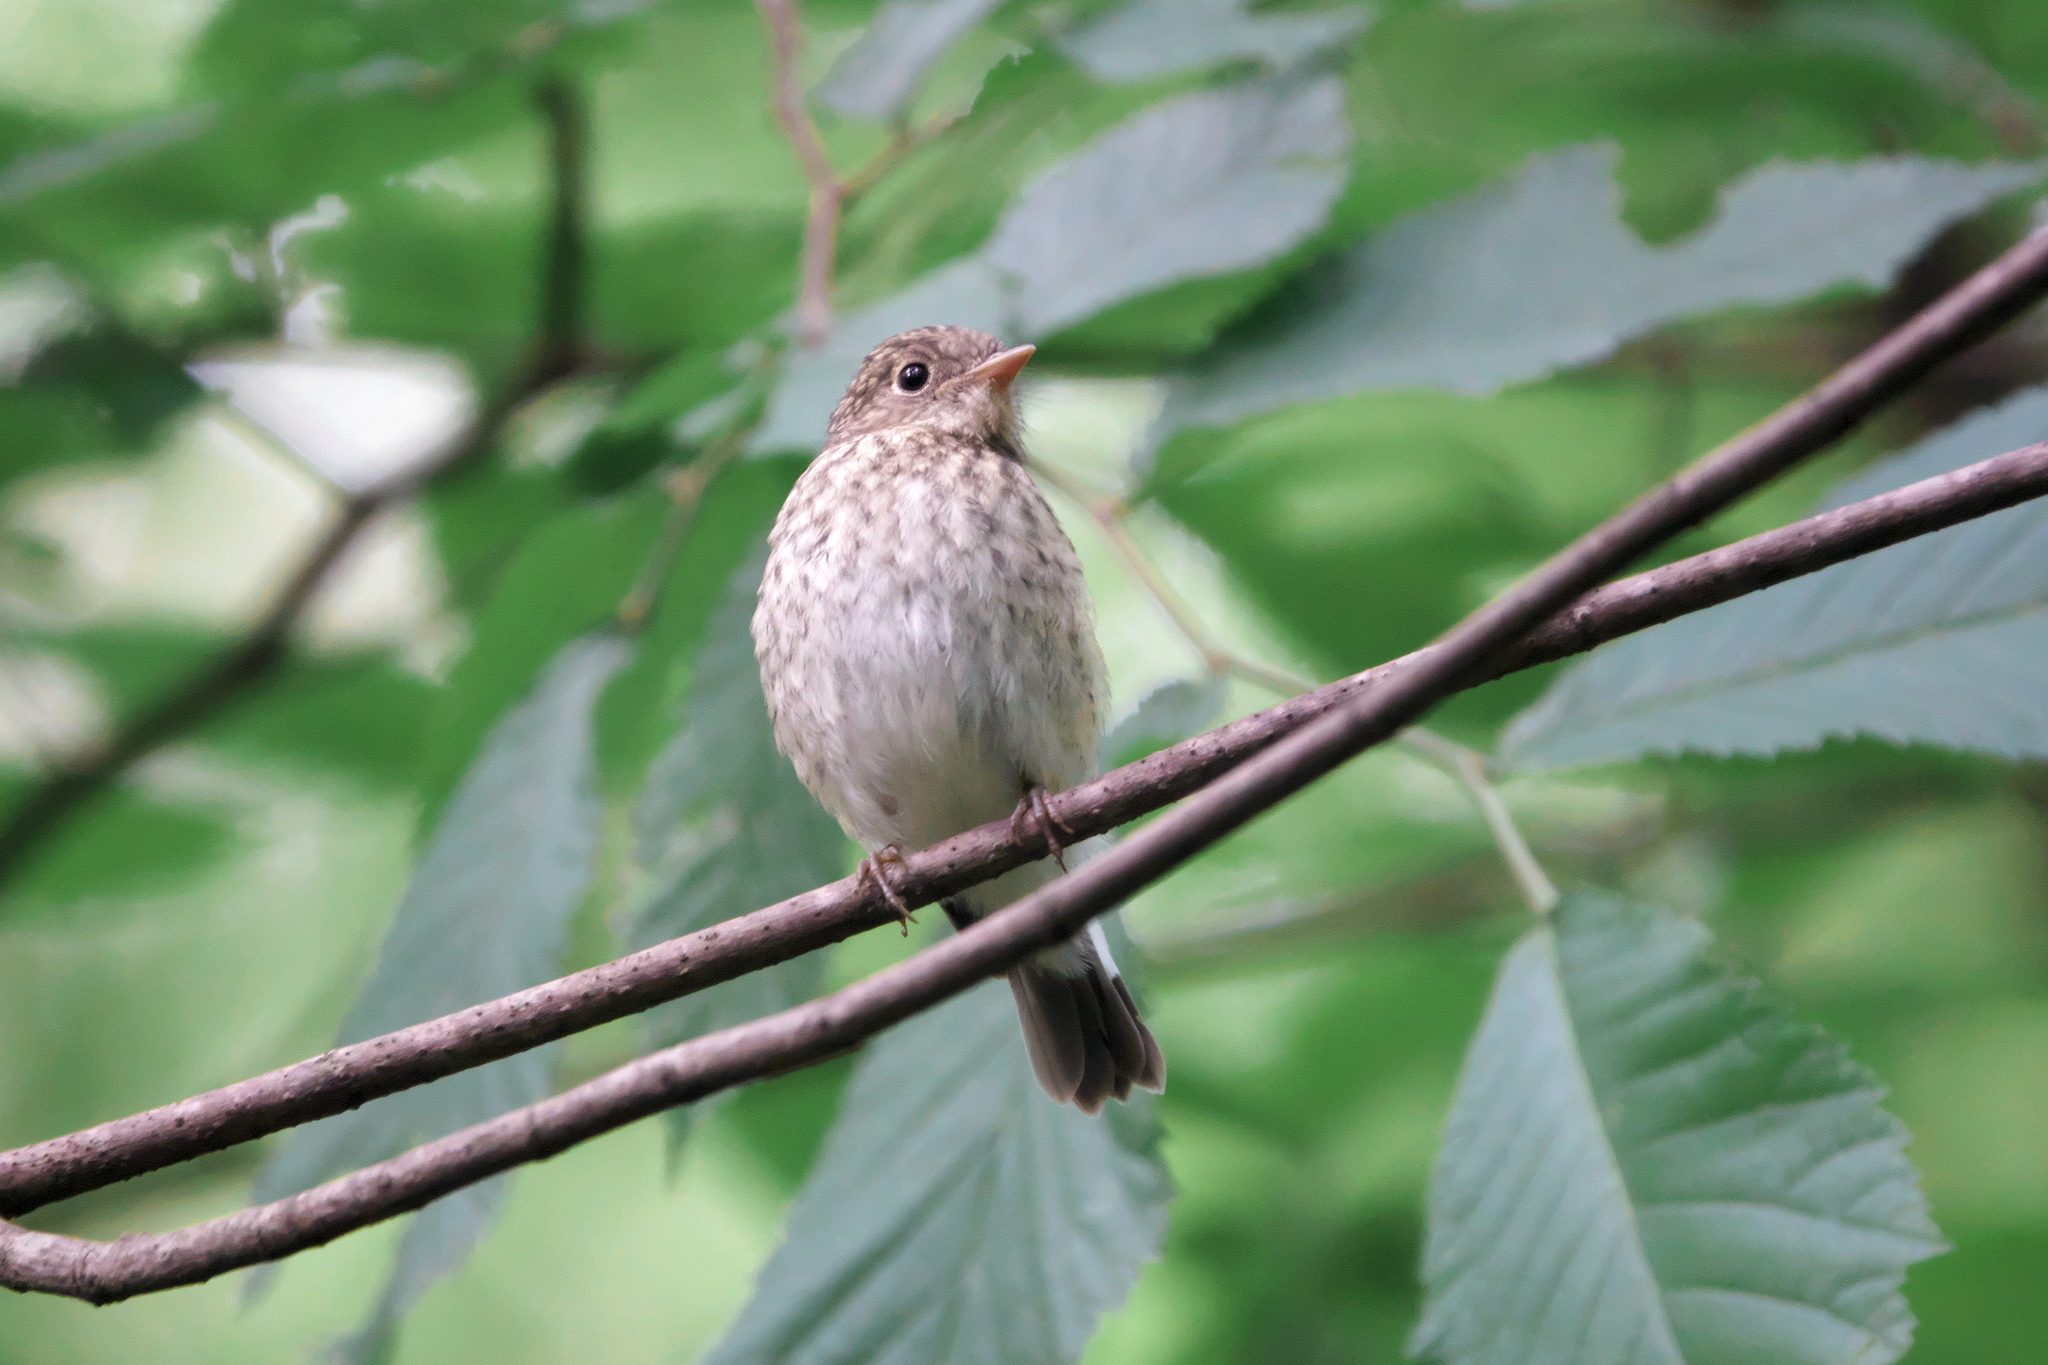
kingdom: Animalia
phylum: Chordata
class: Aves
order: Passeriformes
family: Muscicapidae
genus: Muscicapa
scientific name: Muscicapa striata
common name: Spotted flycatcher
